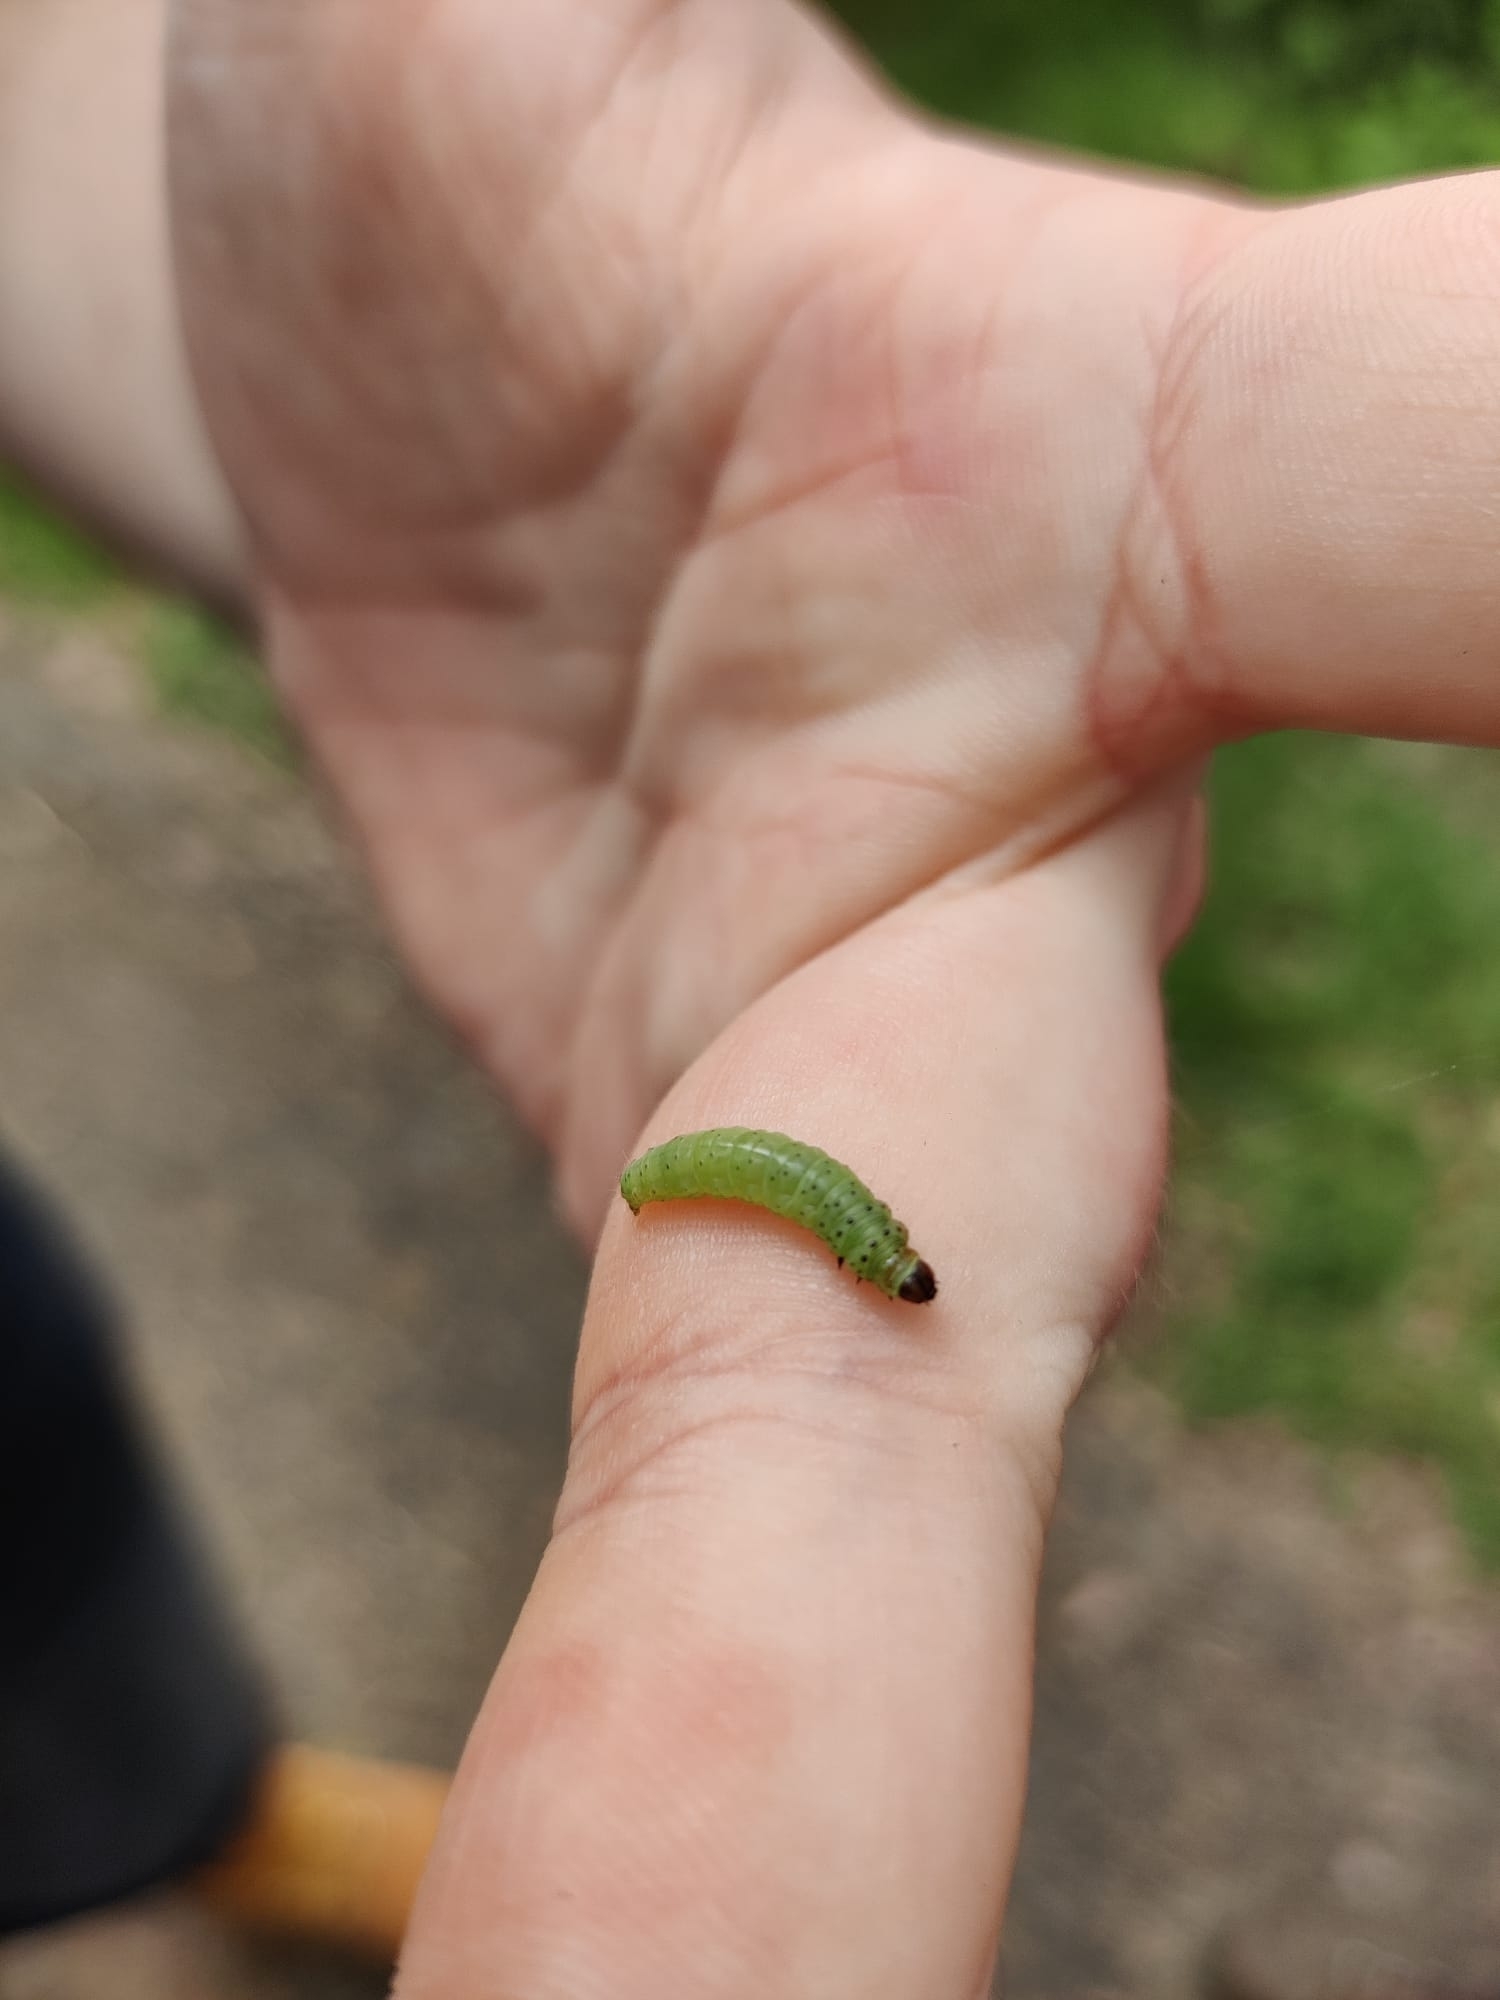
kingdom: Animalia
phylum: Arthropoda
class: Insecta
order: Lepidoptera
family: Tortricidae
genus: Tortrix
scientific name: Tortrix viridana
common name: Green oak tortrix
